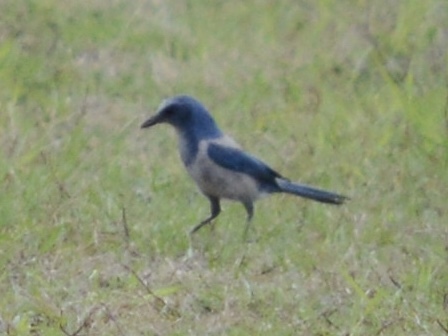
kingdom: Animalia
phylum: Chordata
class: Aves
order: Passeriformes
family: Corvidae
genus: Aphelocoma
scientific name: Aphelocoma coerulescens
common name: Florida scrub jay
